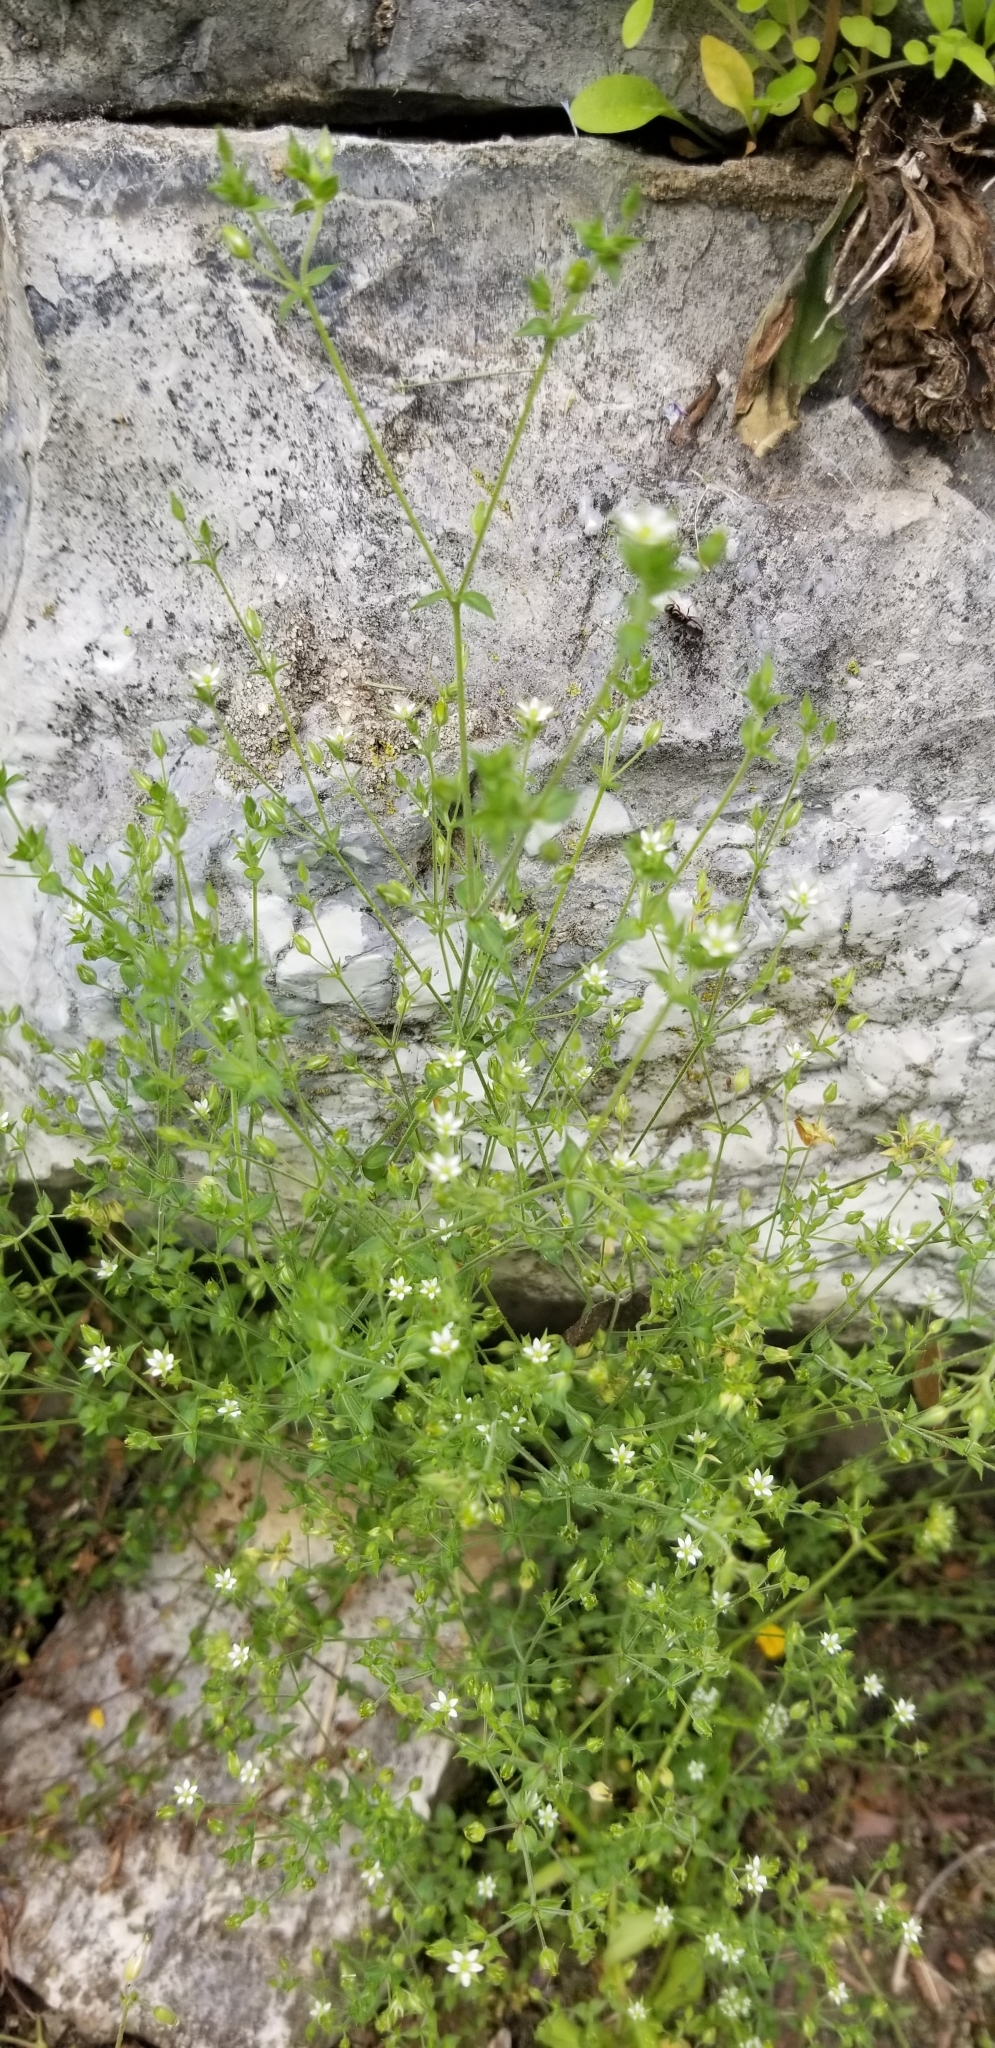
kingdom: Plantae
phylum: Tracheophyta
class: Magnoliopsida
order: Caryophyllales
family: Caryophyllaceae
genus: Arenaria
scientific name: Arenaria serpyllifolia
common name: Thyme-leaved sandwort
